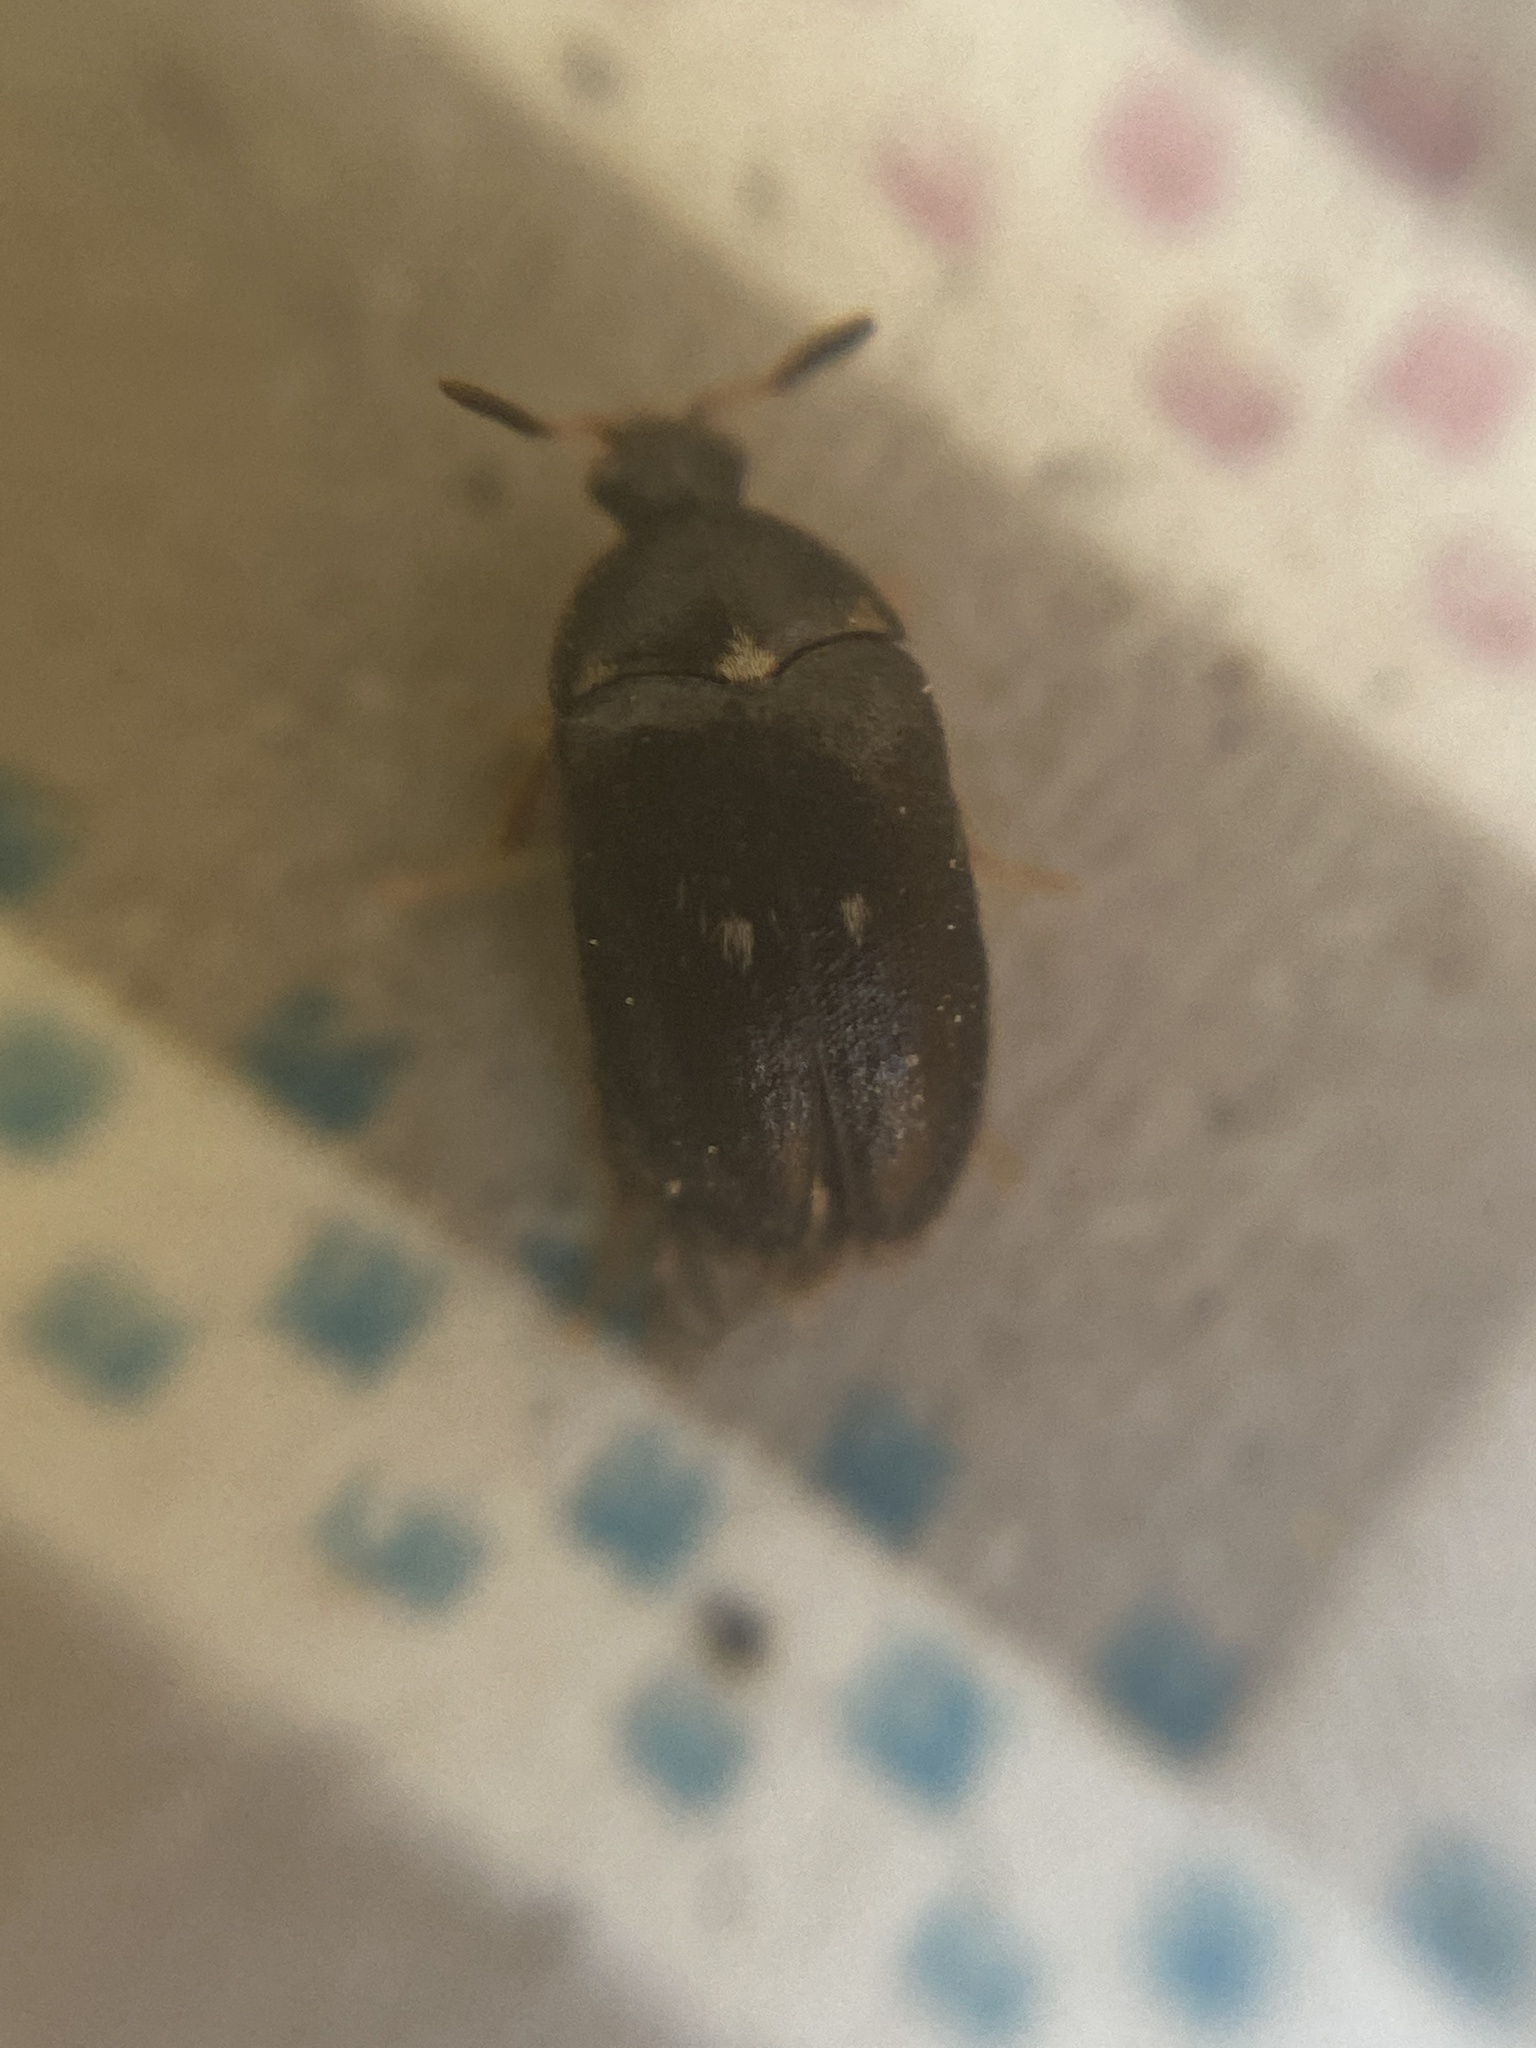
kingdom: Animalia
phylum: Arthropoda
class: Insecta
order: Coleoptera
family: Dermestidae
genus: Attagenus
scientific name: Attagenus pellio
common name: Two-spotted carpet beetle
